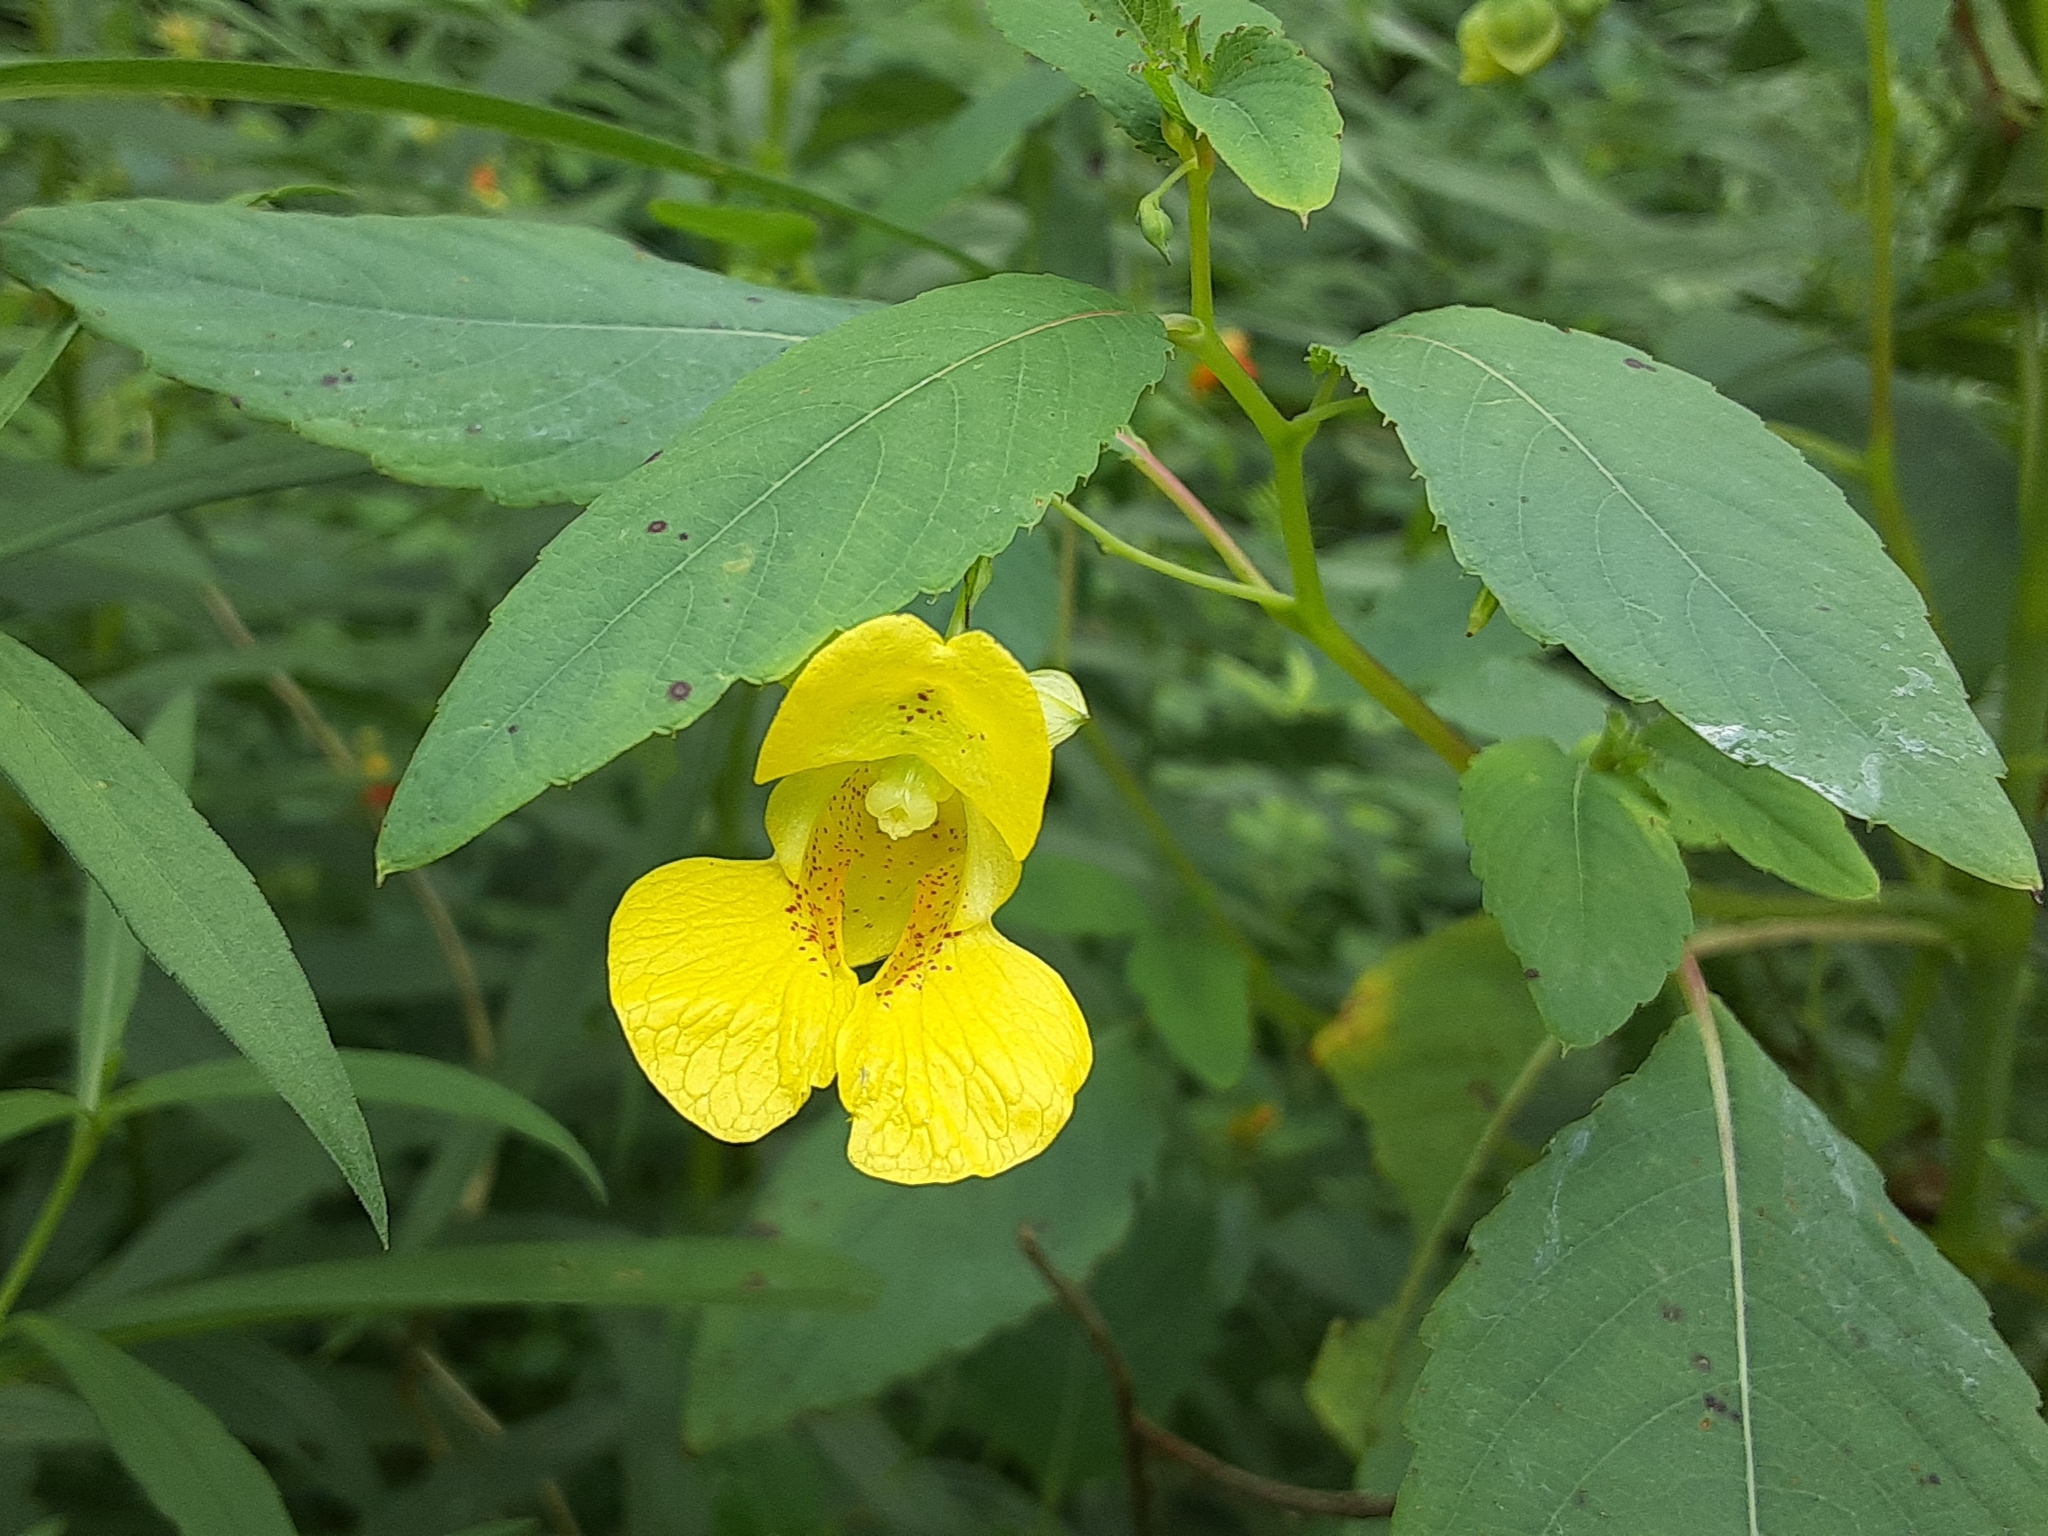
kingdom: Plantae
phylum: Tracheophyta
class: Magnoliopsida
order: Ericales
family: Balsaminaceae
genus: Impatiens
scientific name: Impatiens pallida
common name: Pale snapweed
